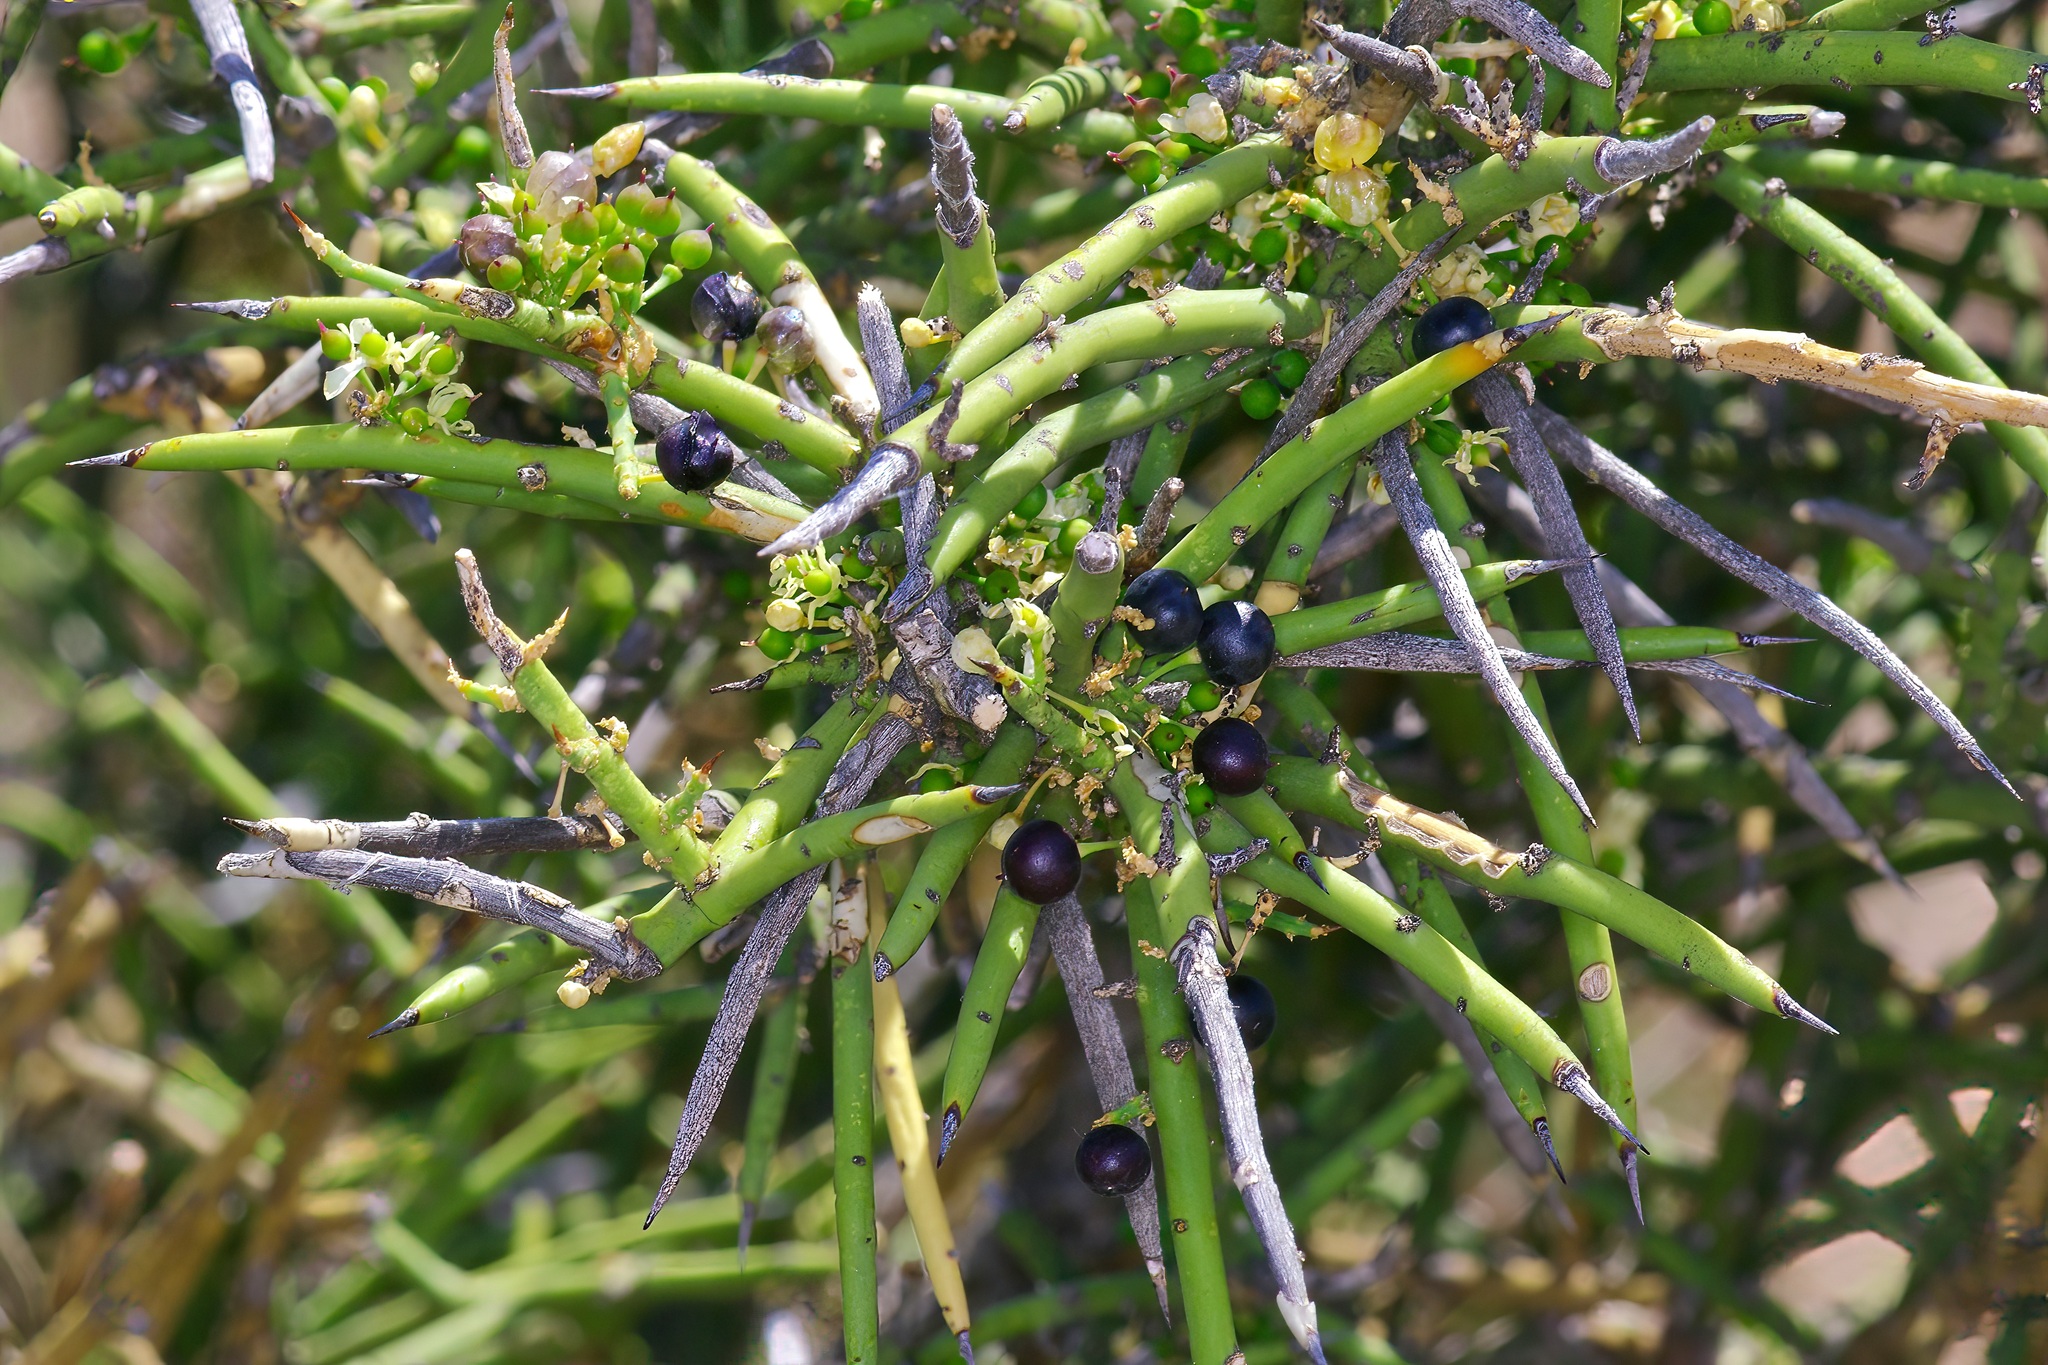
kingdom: Plantae
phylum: Tracheophyta
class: Magnoliopsida
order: Brassicales
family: Koeberliniaceae
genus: Koeberlinia
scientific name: Koeberlinia spinosa
